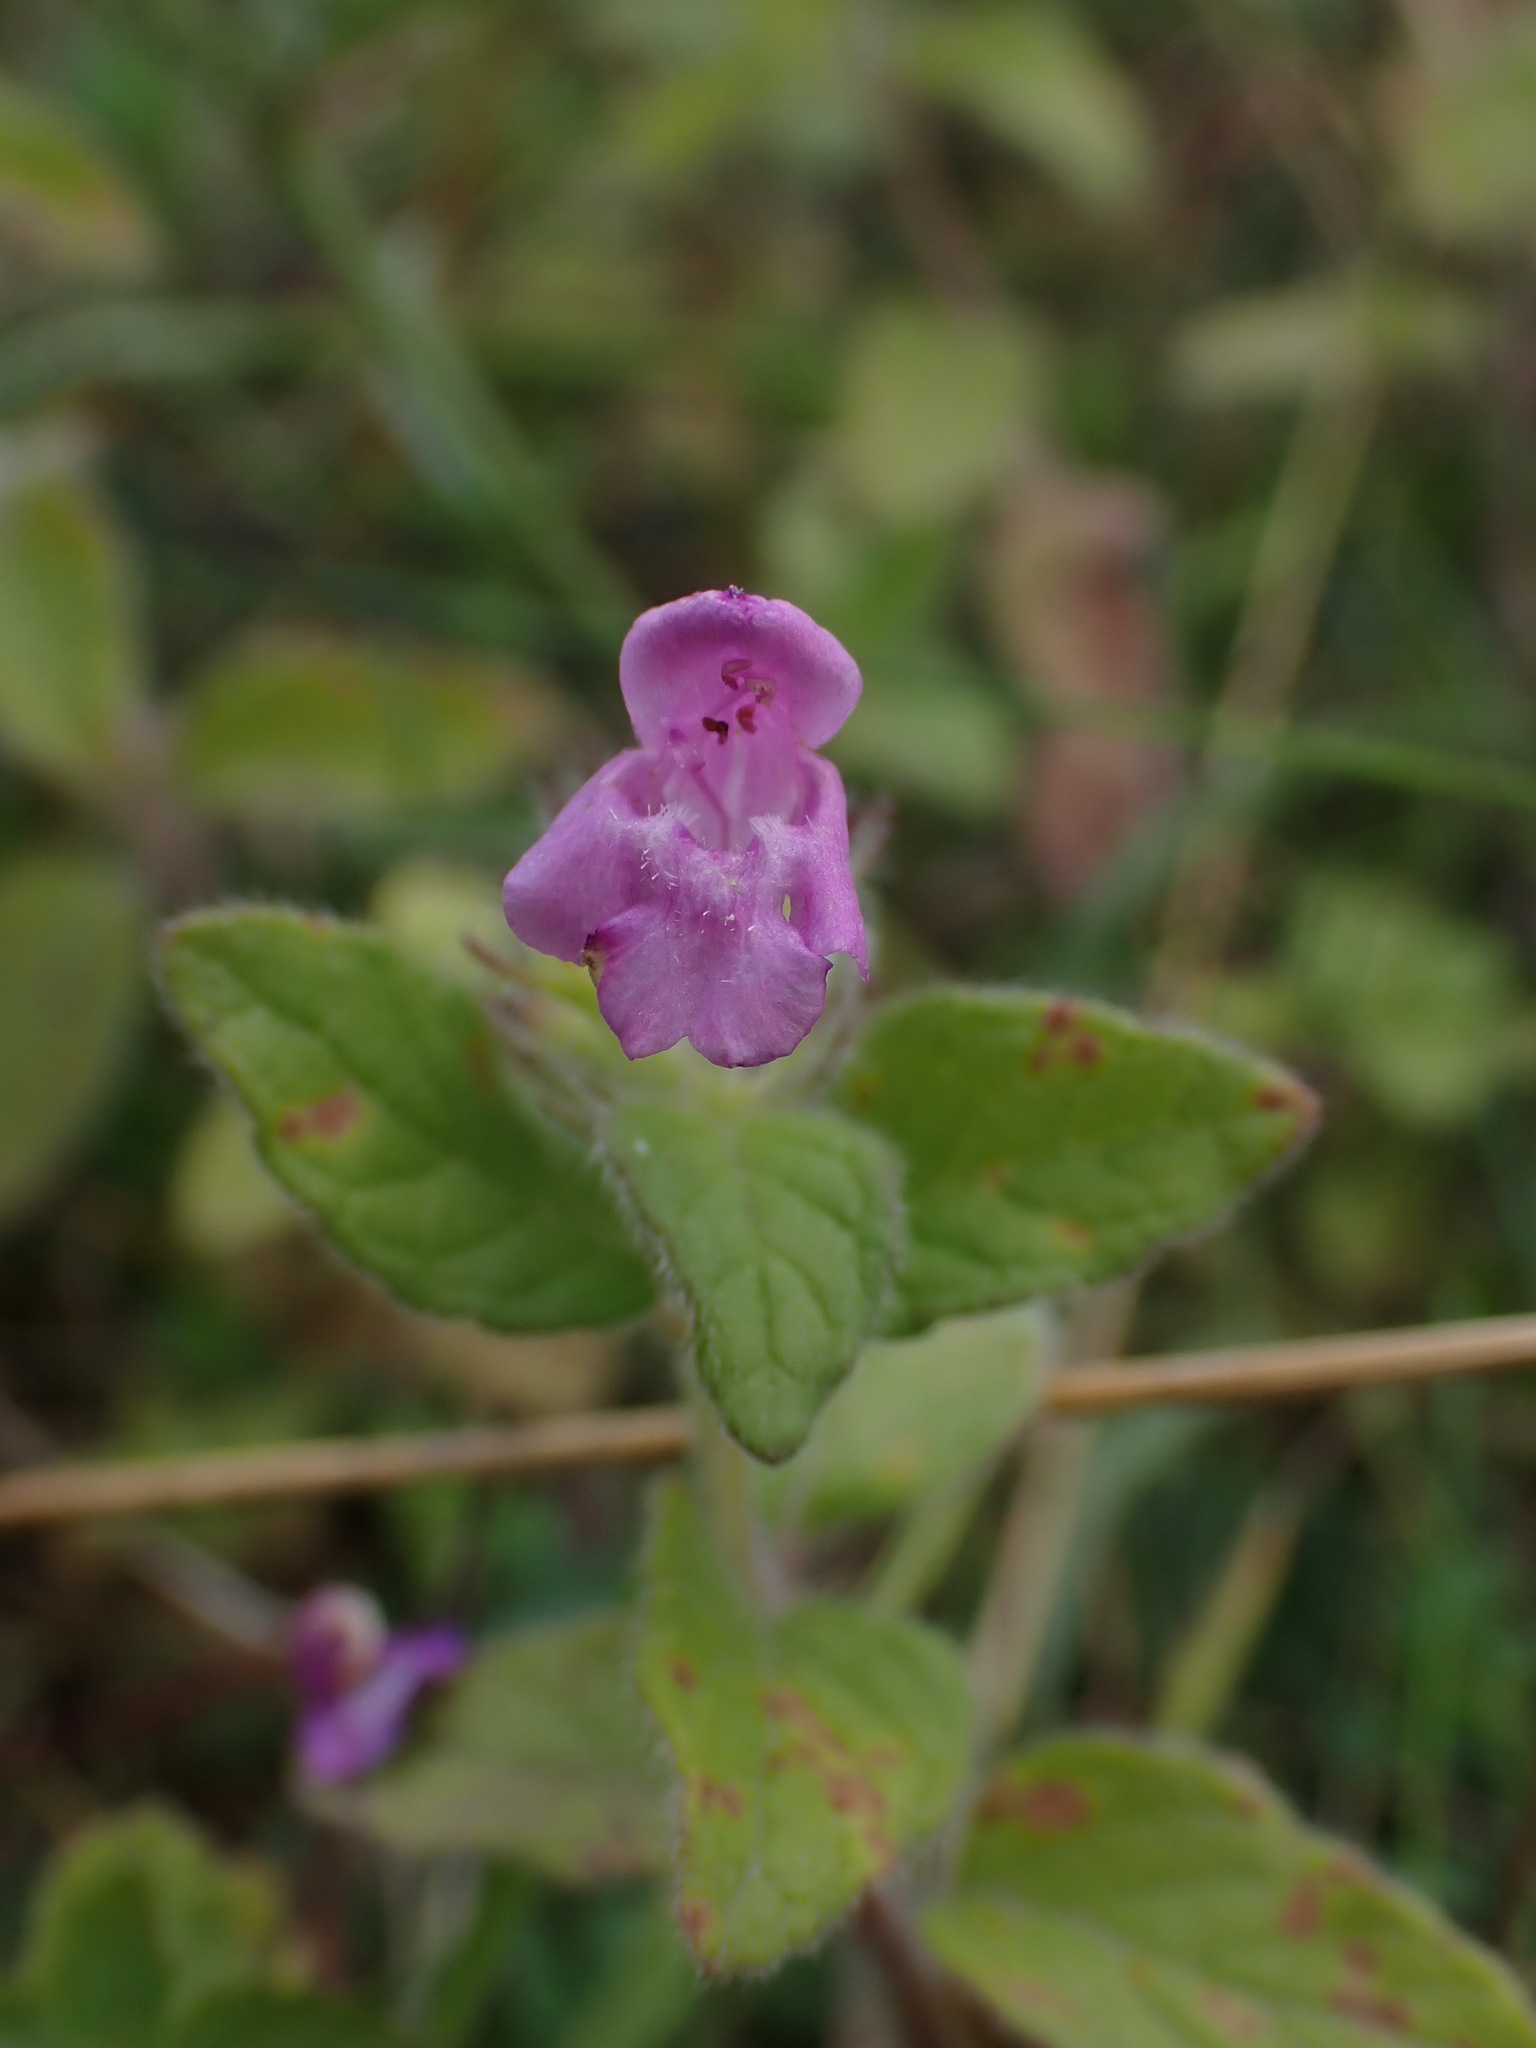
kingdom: Plantae
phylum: Tracheophyta
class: Magnoliopsida
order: Lamiales
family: Lamiaceae
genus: Clinopodium
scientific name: Clinopodium vulgare
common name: Wild basil
